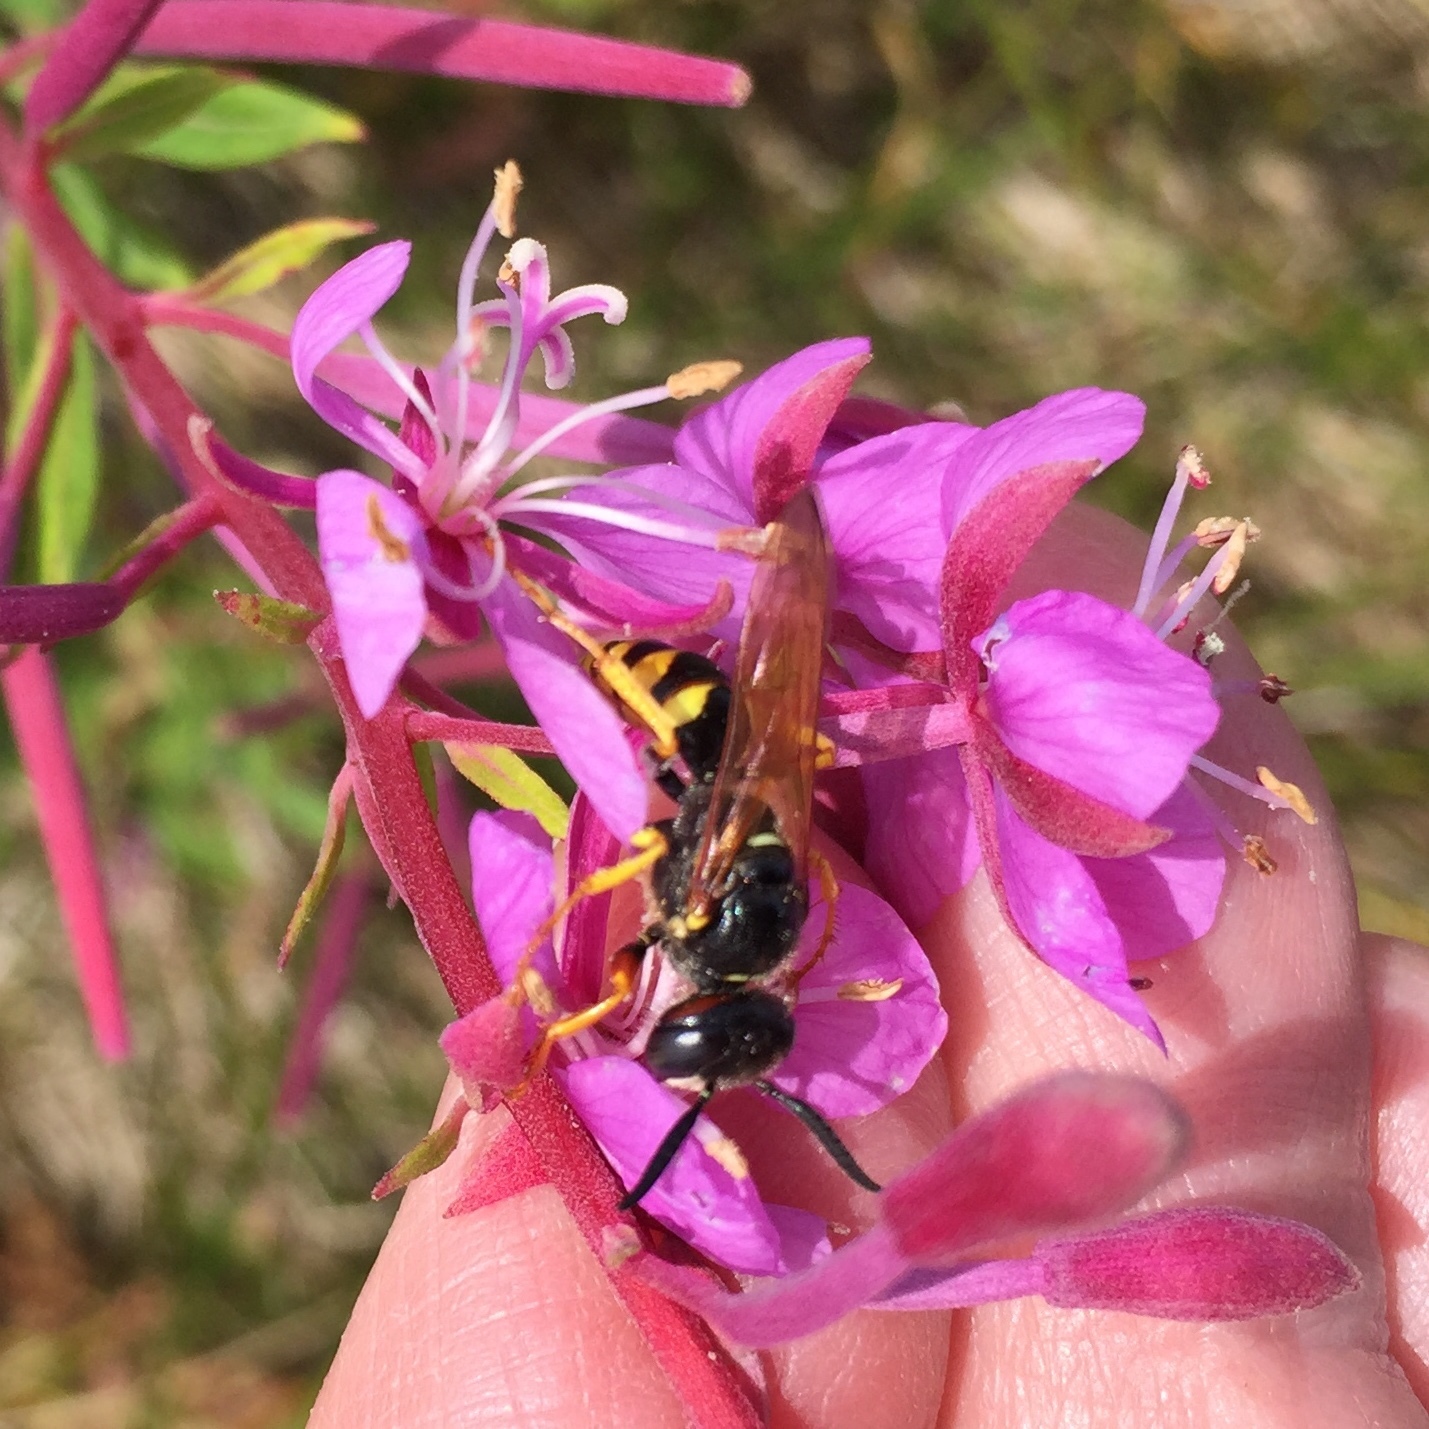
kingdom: Animalia
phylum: Arthropoda
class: Insecta
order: Hymenoptera
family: Crabronidae
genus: Philanthus
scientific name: Philanthus triangulum
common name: Bee wolf
